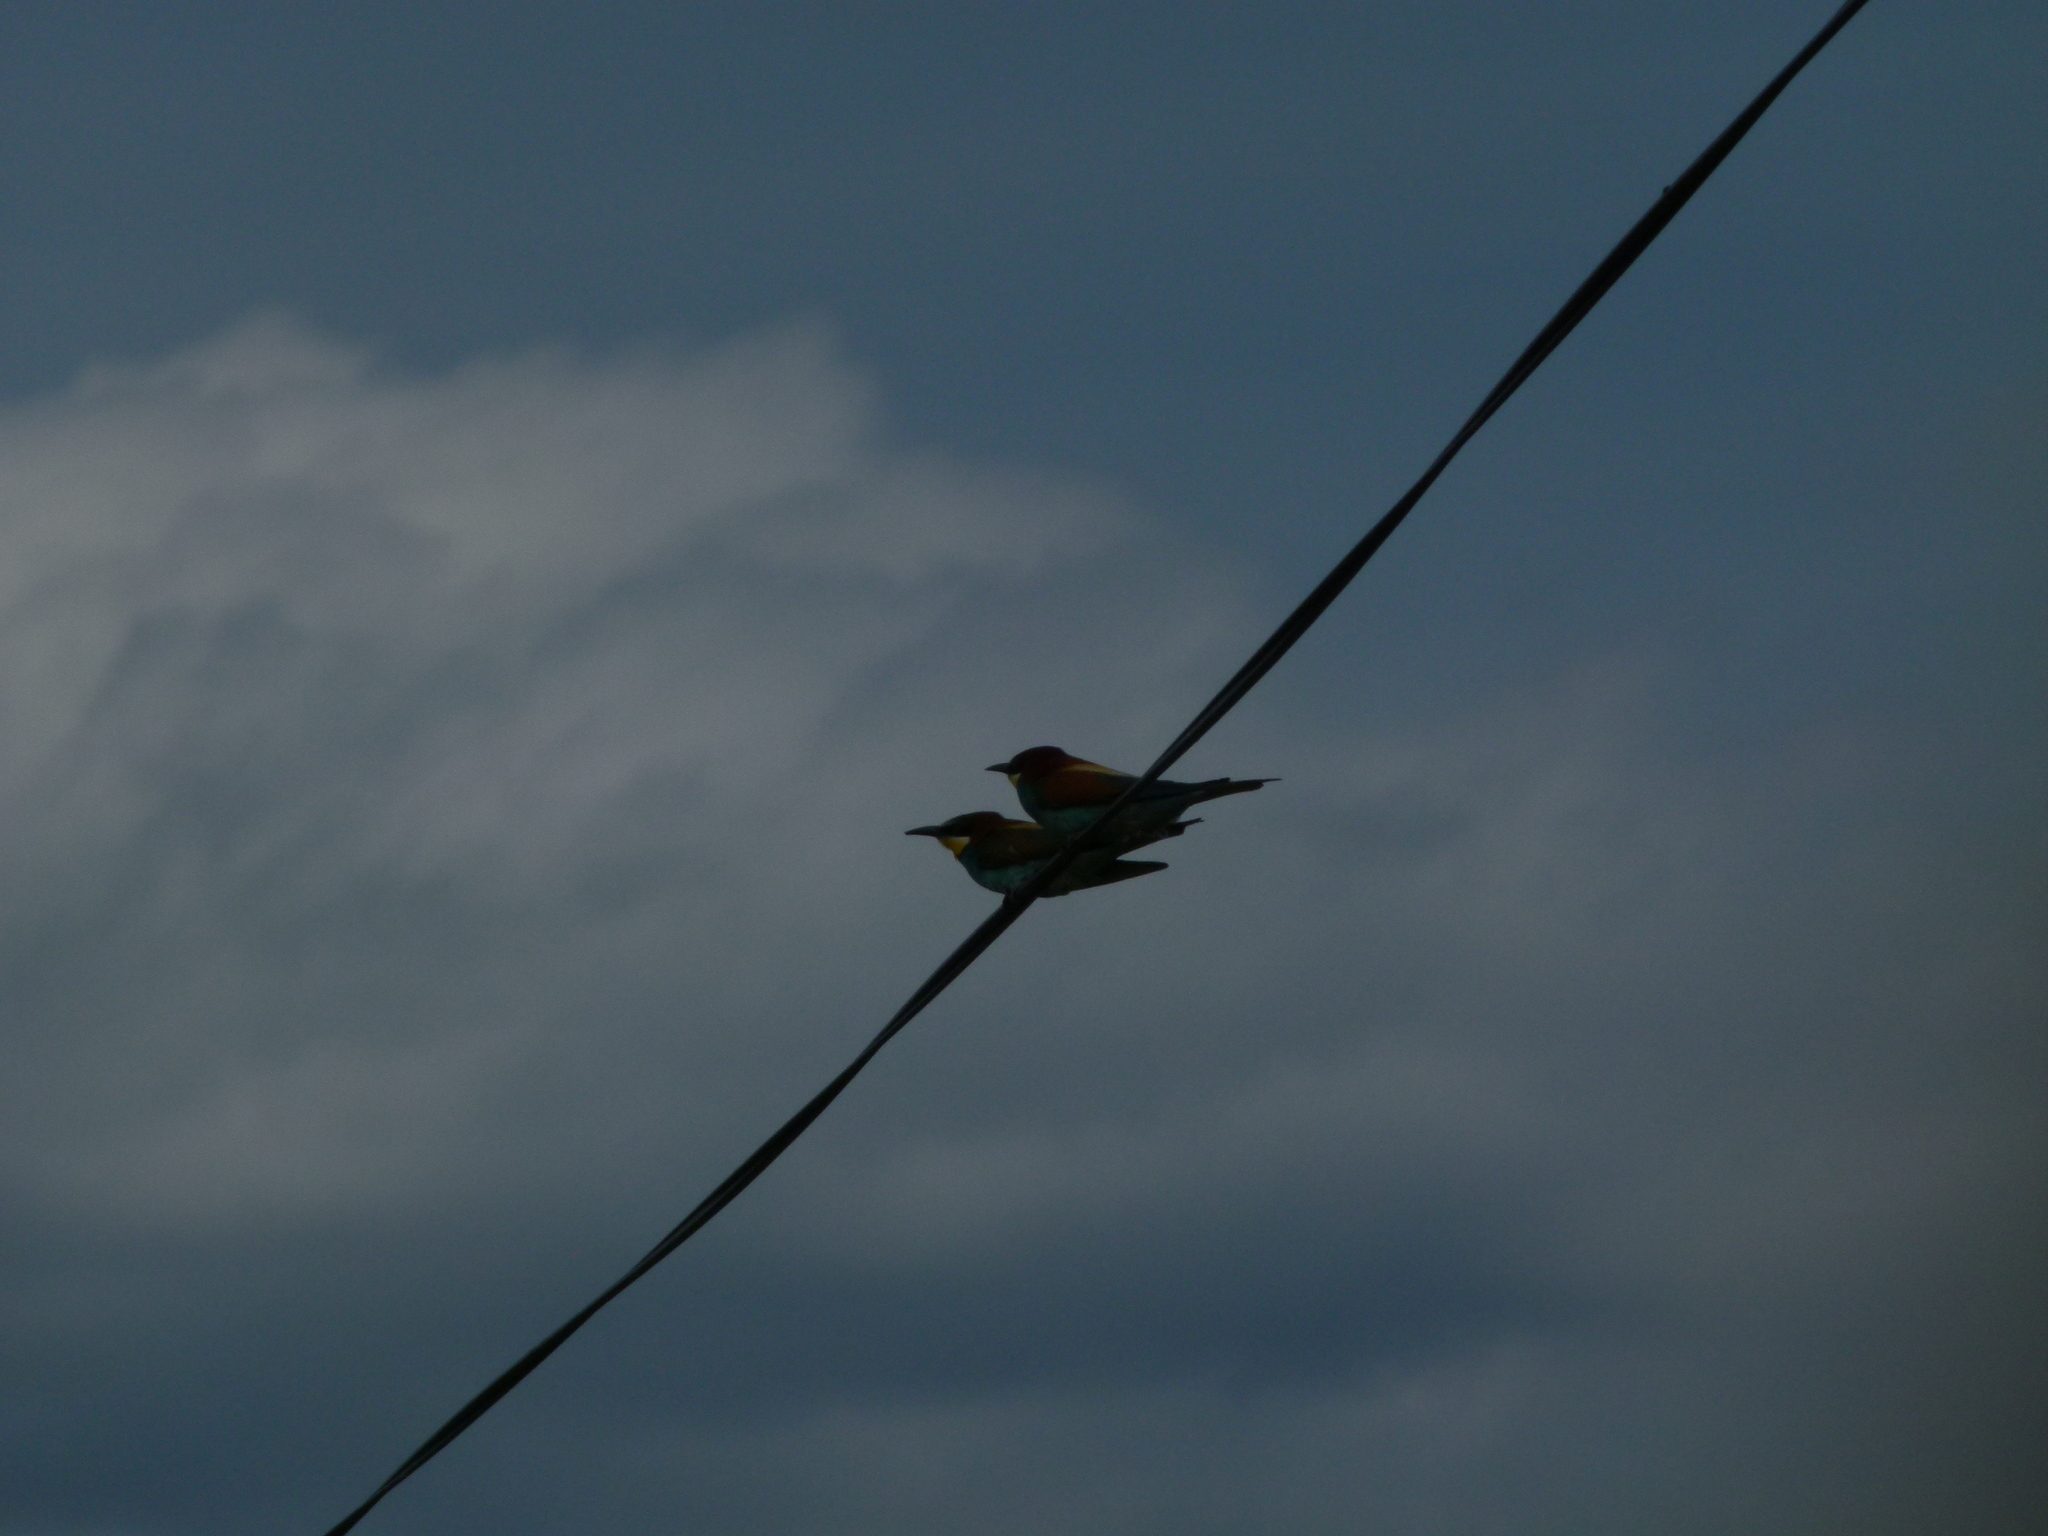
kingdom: Animalia
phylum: Chordata
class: Aves
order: Coraciiformes
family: Meropidae
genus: Merops
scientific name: Merops apiaster
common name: European bee-eater
